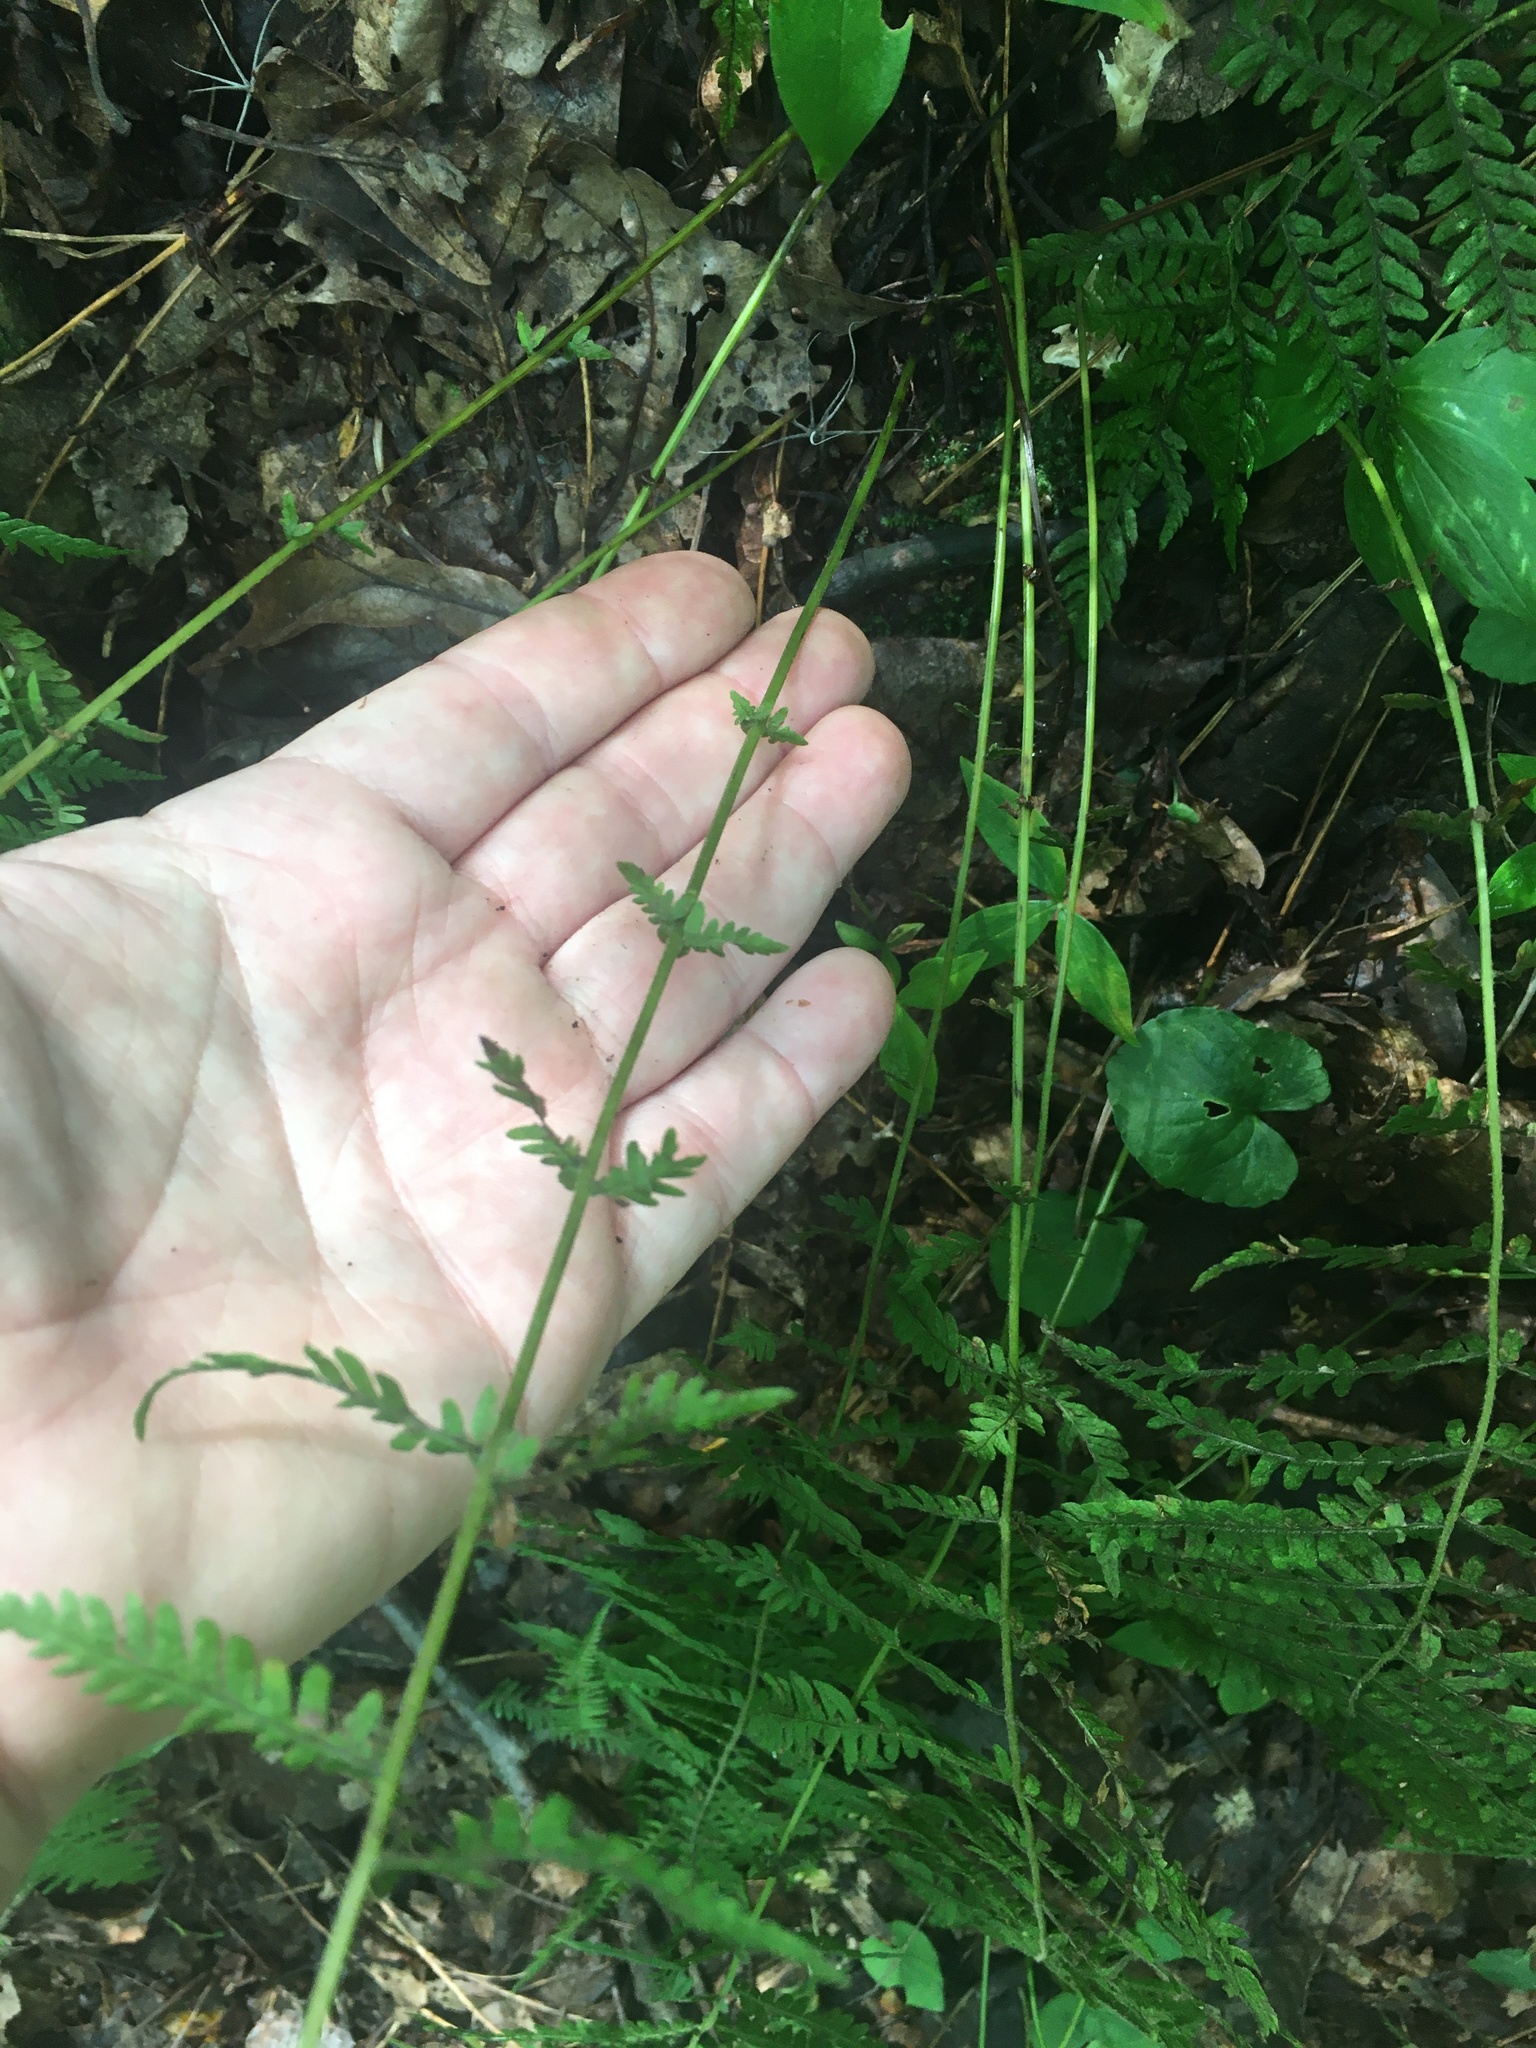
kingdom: Plantae
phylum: Tracheophyta
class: Polypodiopsida
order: Polypodiales
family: Thelypteridaceae
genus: Amauropelta
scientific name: Amauropelta noveboracensis
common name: New york fern
